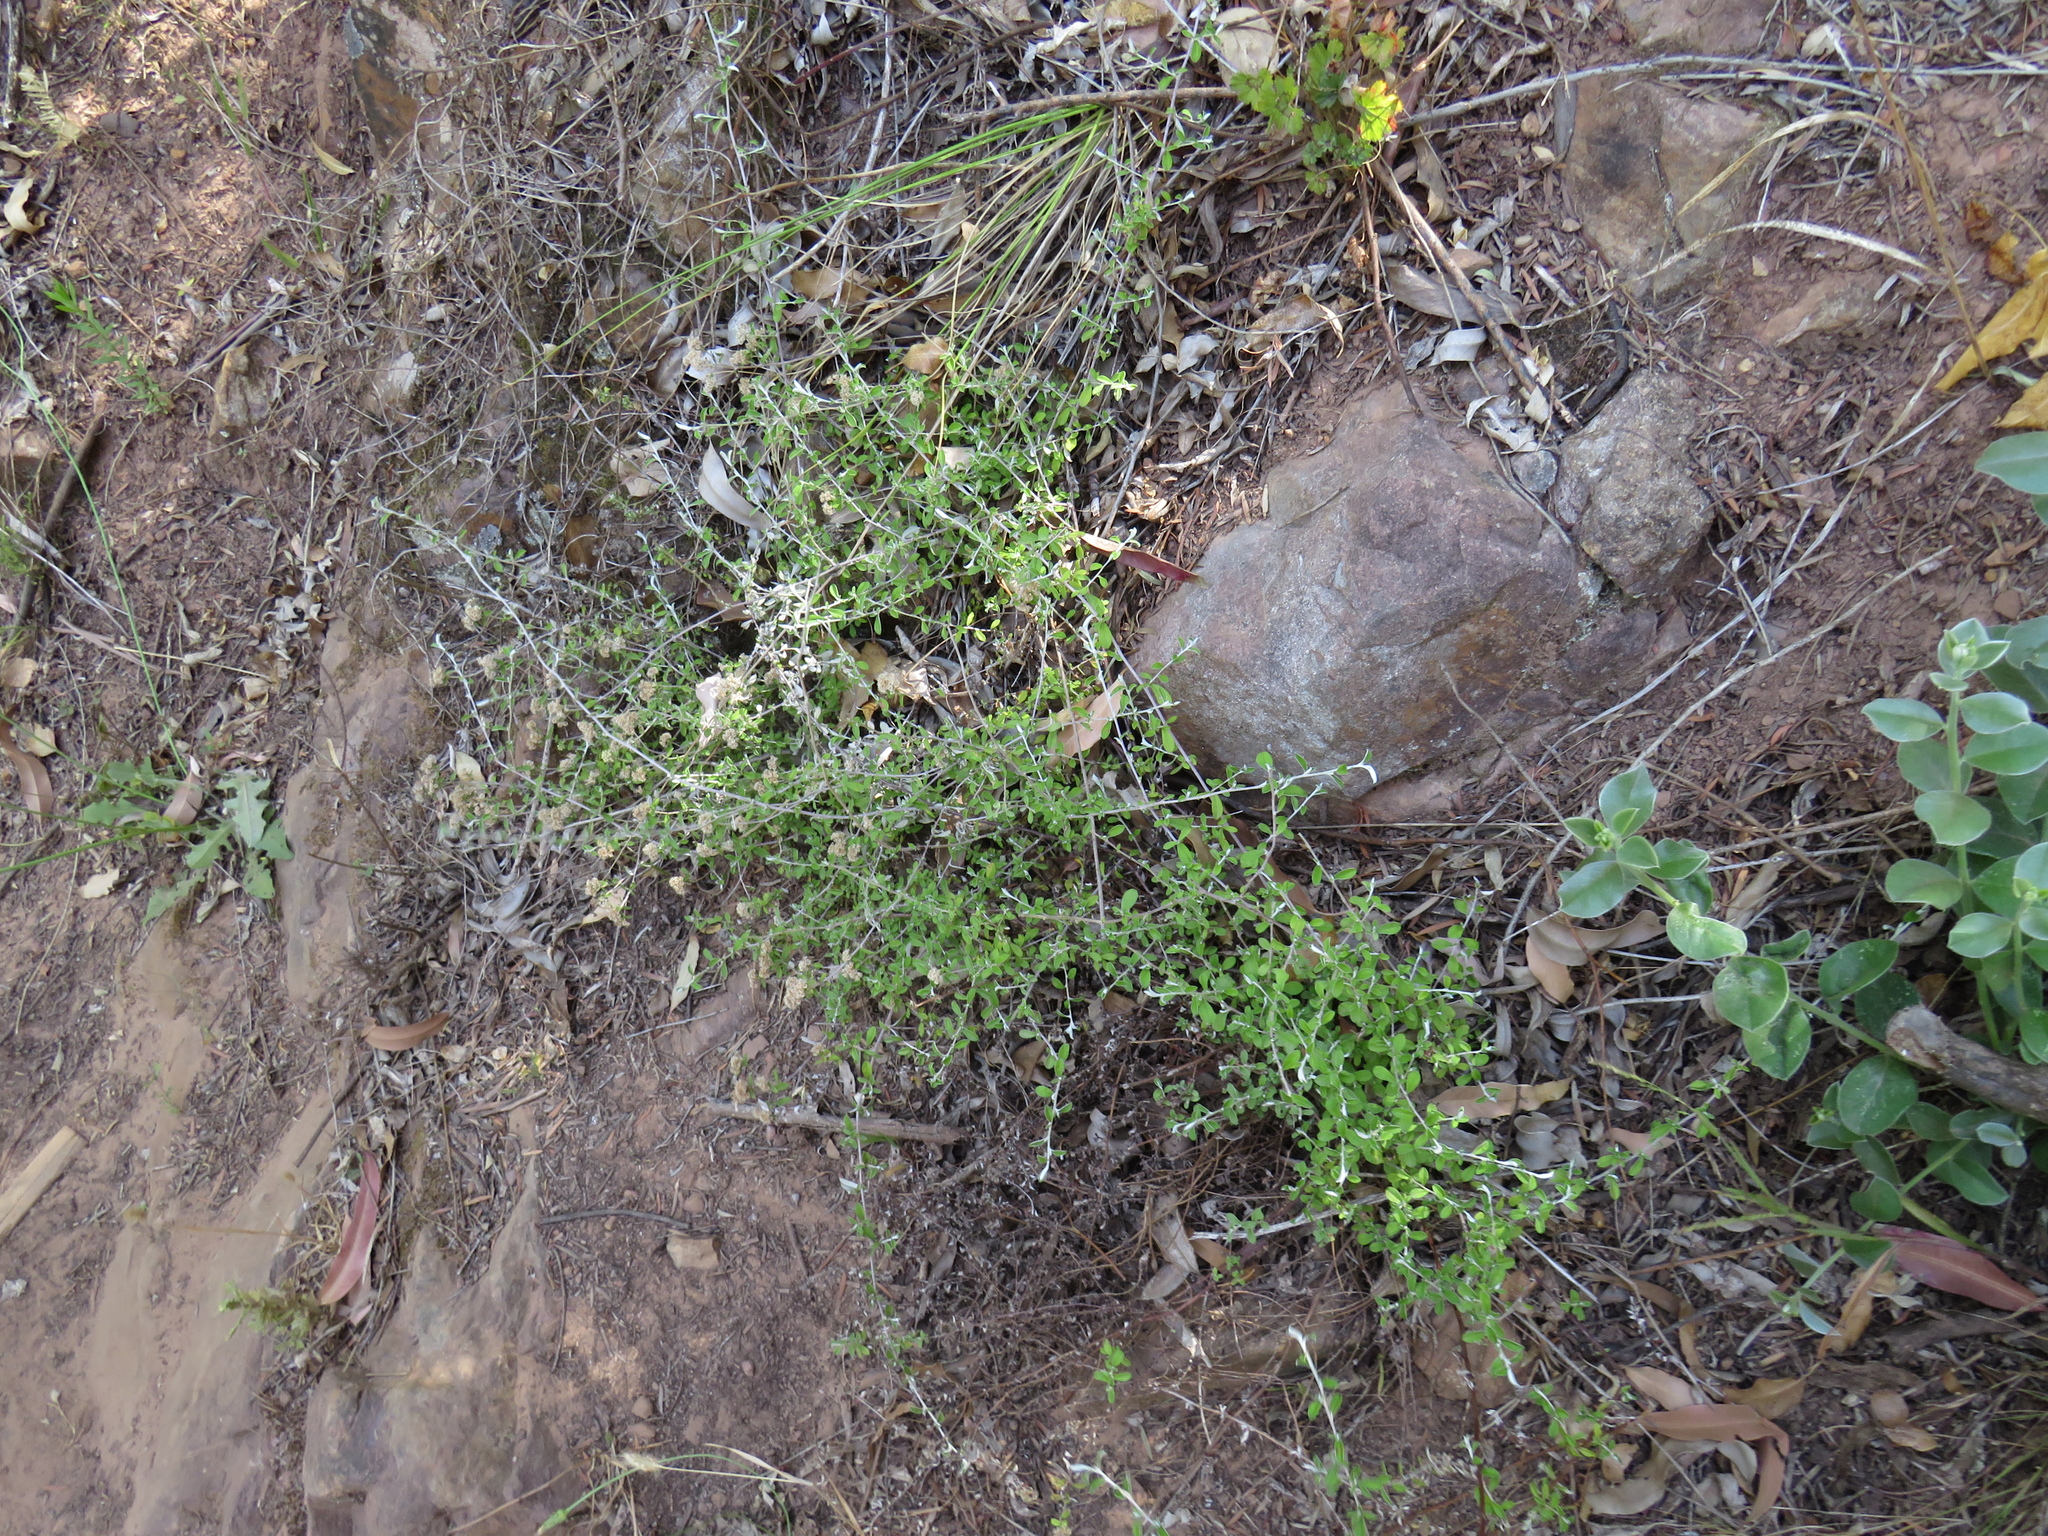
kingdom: Plantae
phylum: Tracheophyta
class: Magnoliopsida
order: Asterales
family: Asteraceae
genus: Plecostachys
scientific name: Plecostachys polifolia
